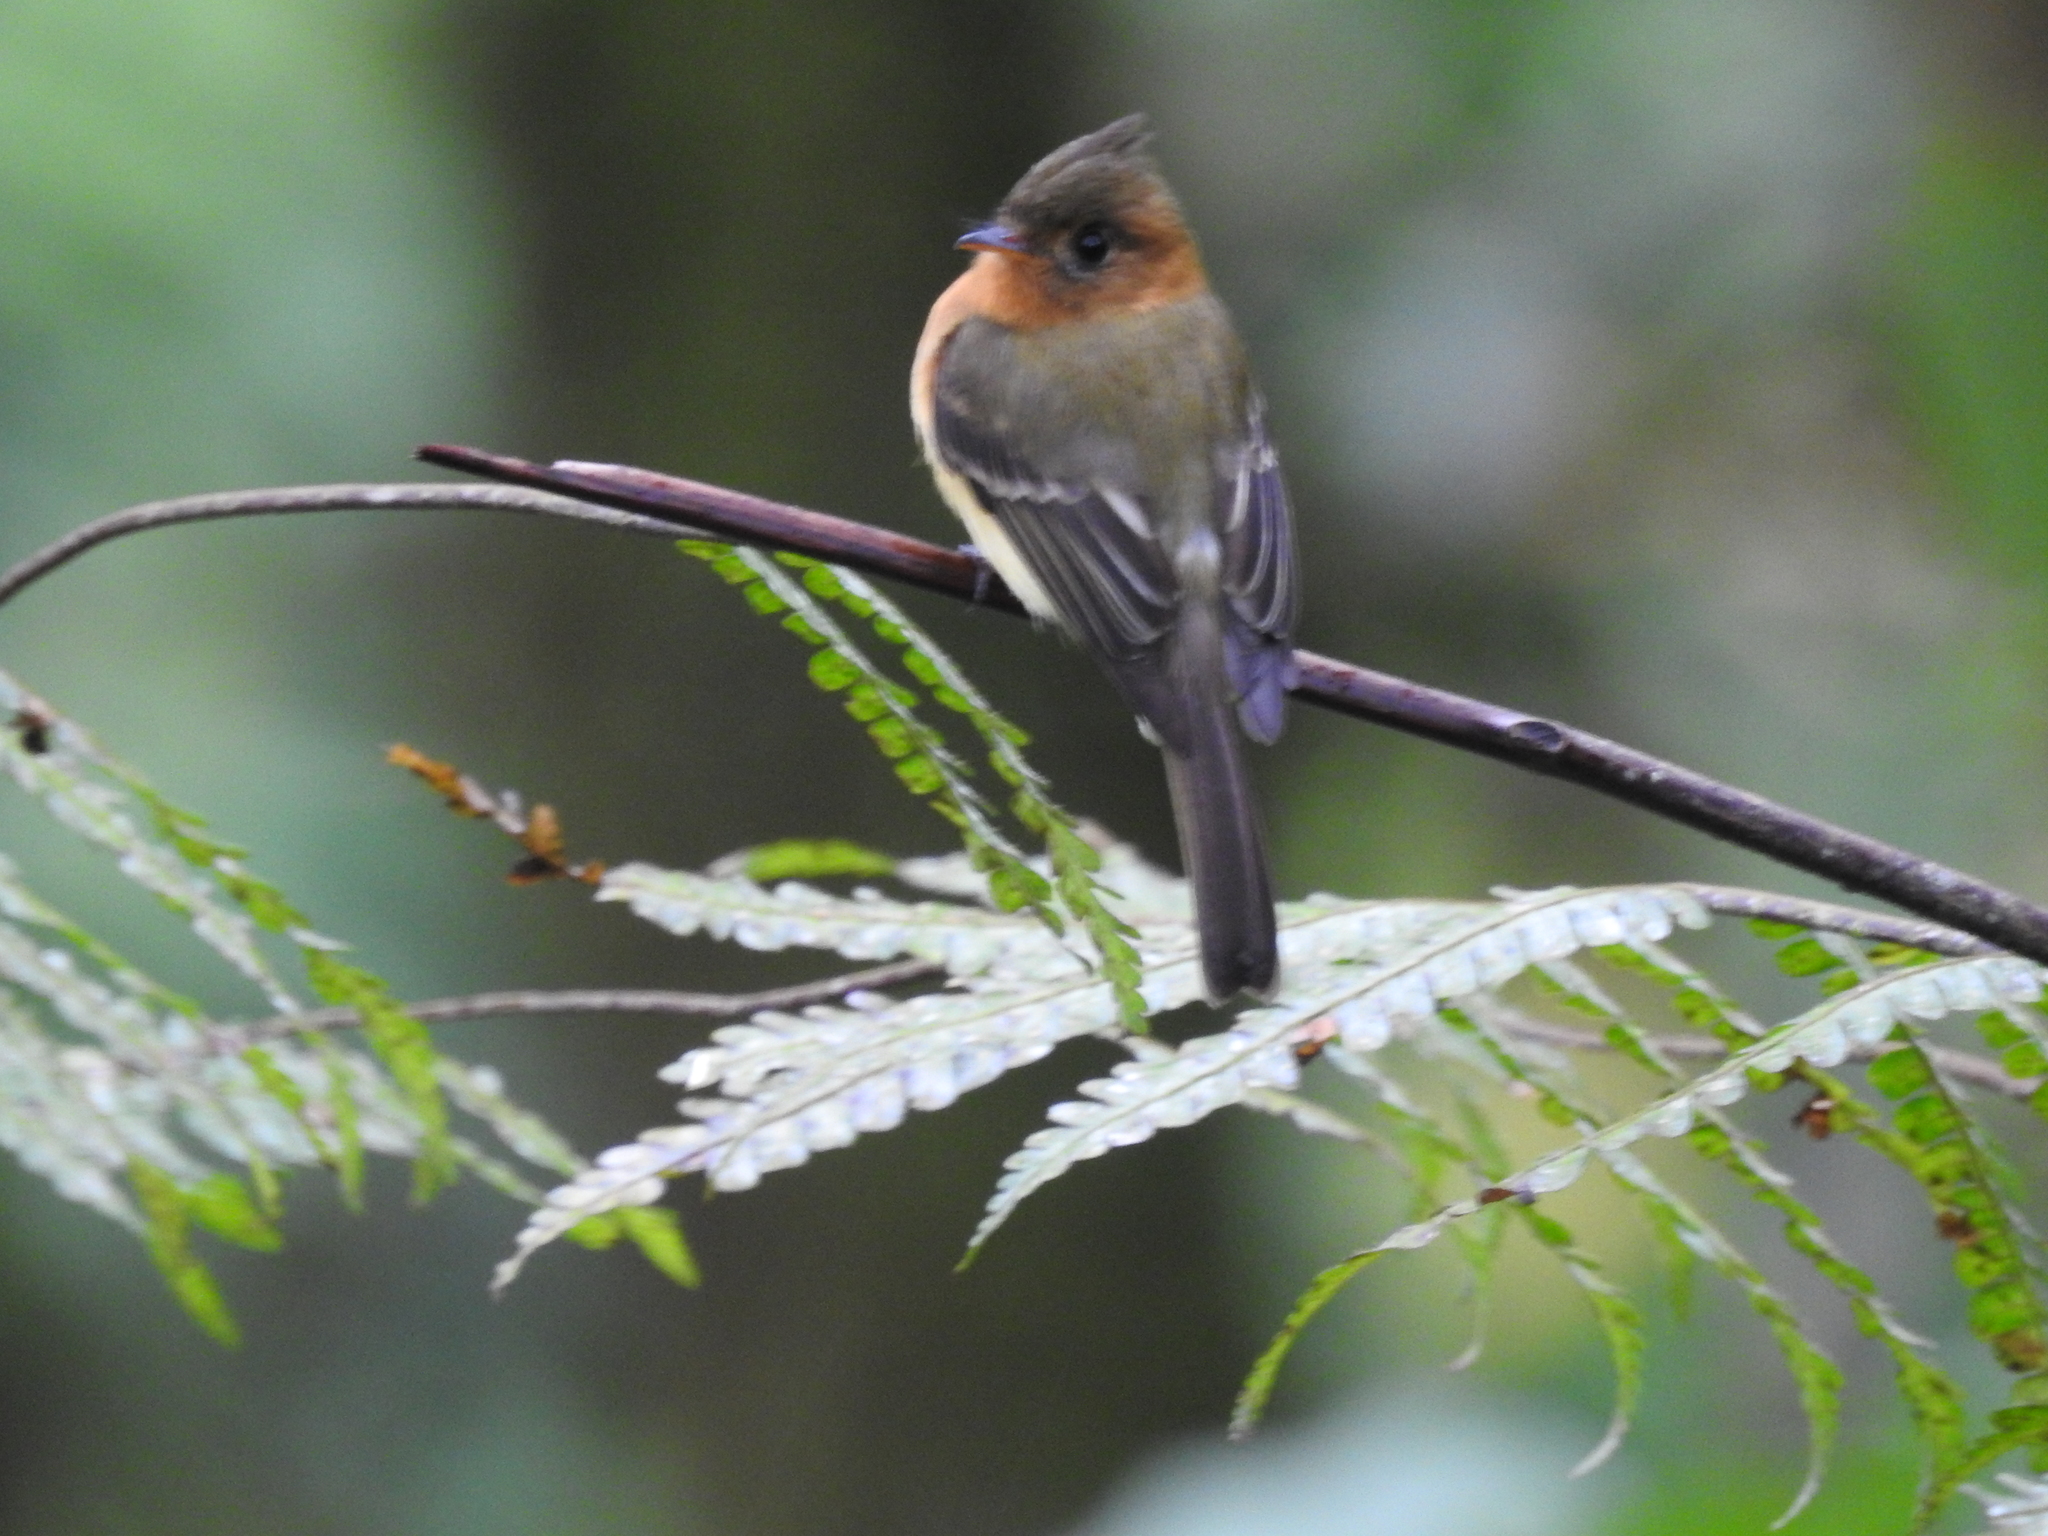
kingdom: Animalia
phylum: Chordata
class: Aves
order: Passeriformes
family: Tyrannidae
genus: Mitrephanes
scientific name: Mitrephanes phaeocercus
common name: Northern tufted flycatcher
